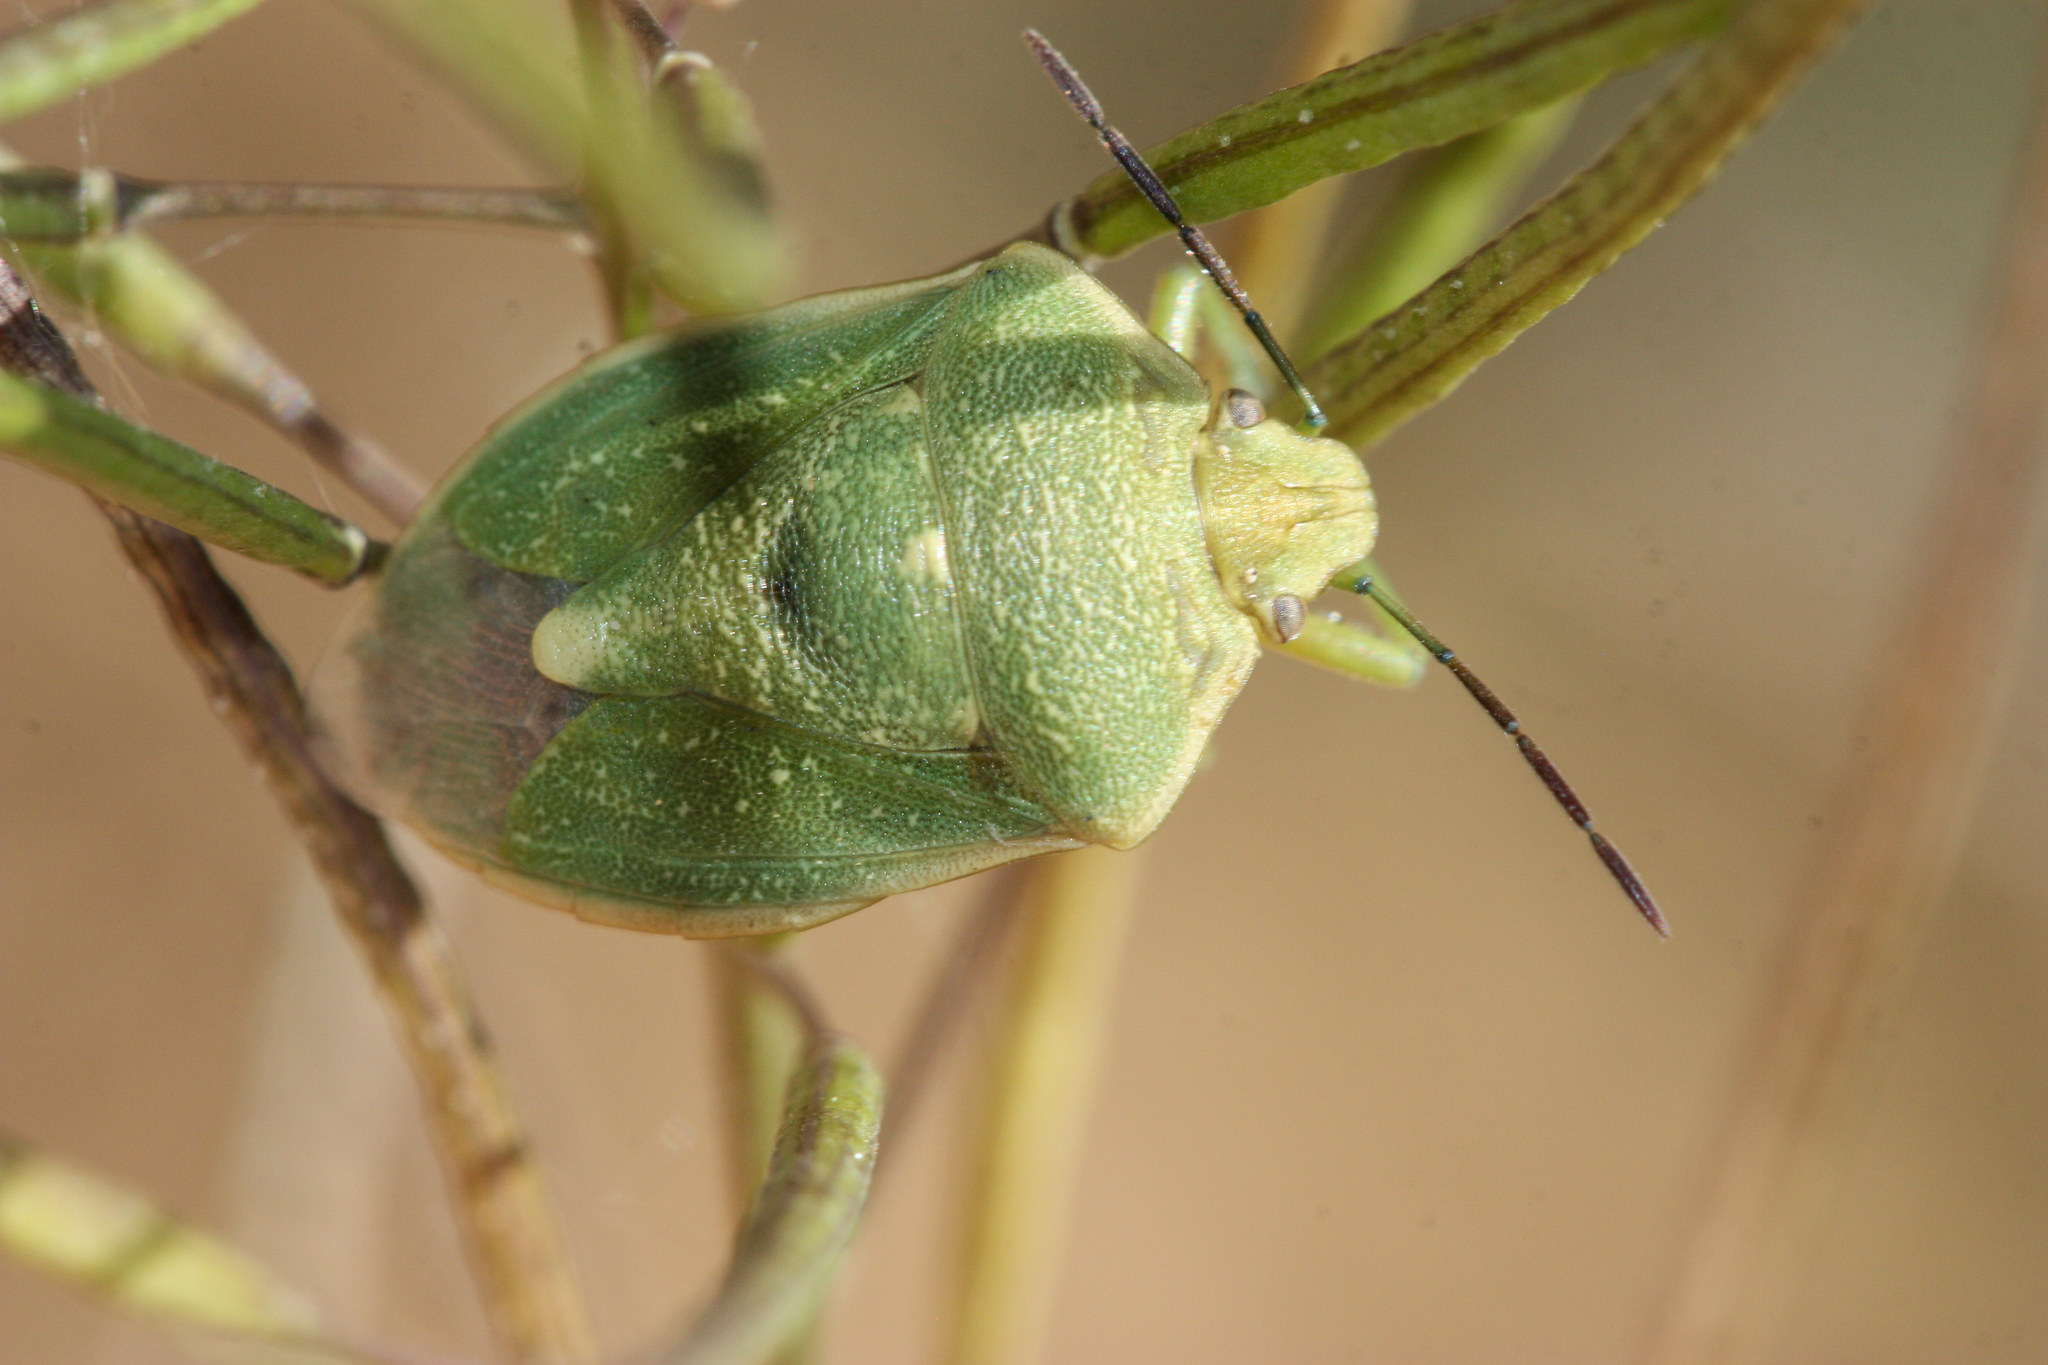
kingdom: Animalia
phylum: Arthropoda
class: Insecta
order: Hemiptera
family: Pentatomidae
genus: Chlorochroa
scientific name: Chlorochroa uhleri
